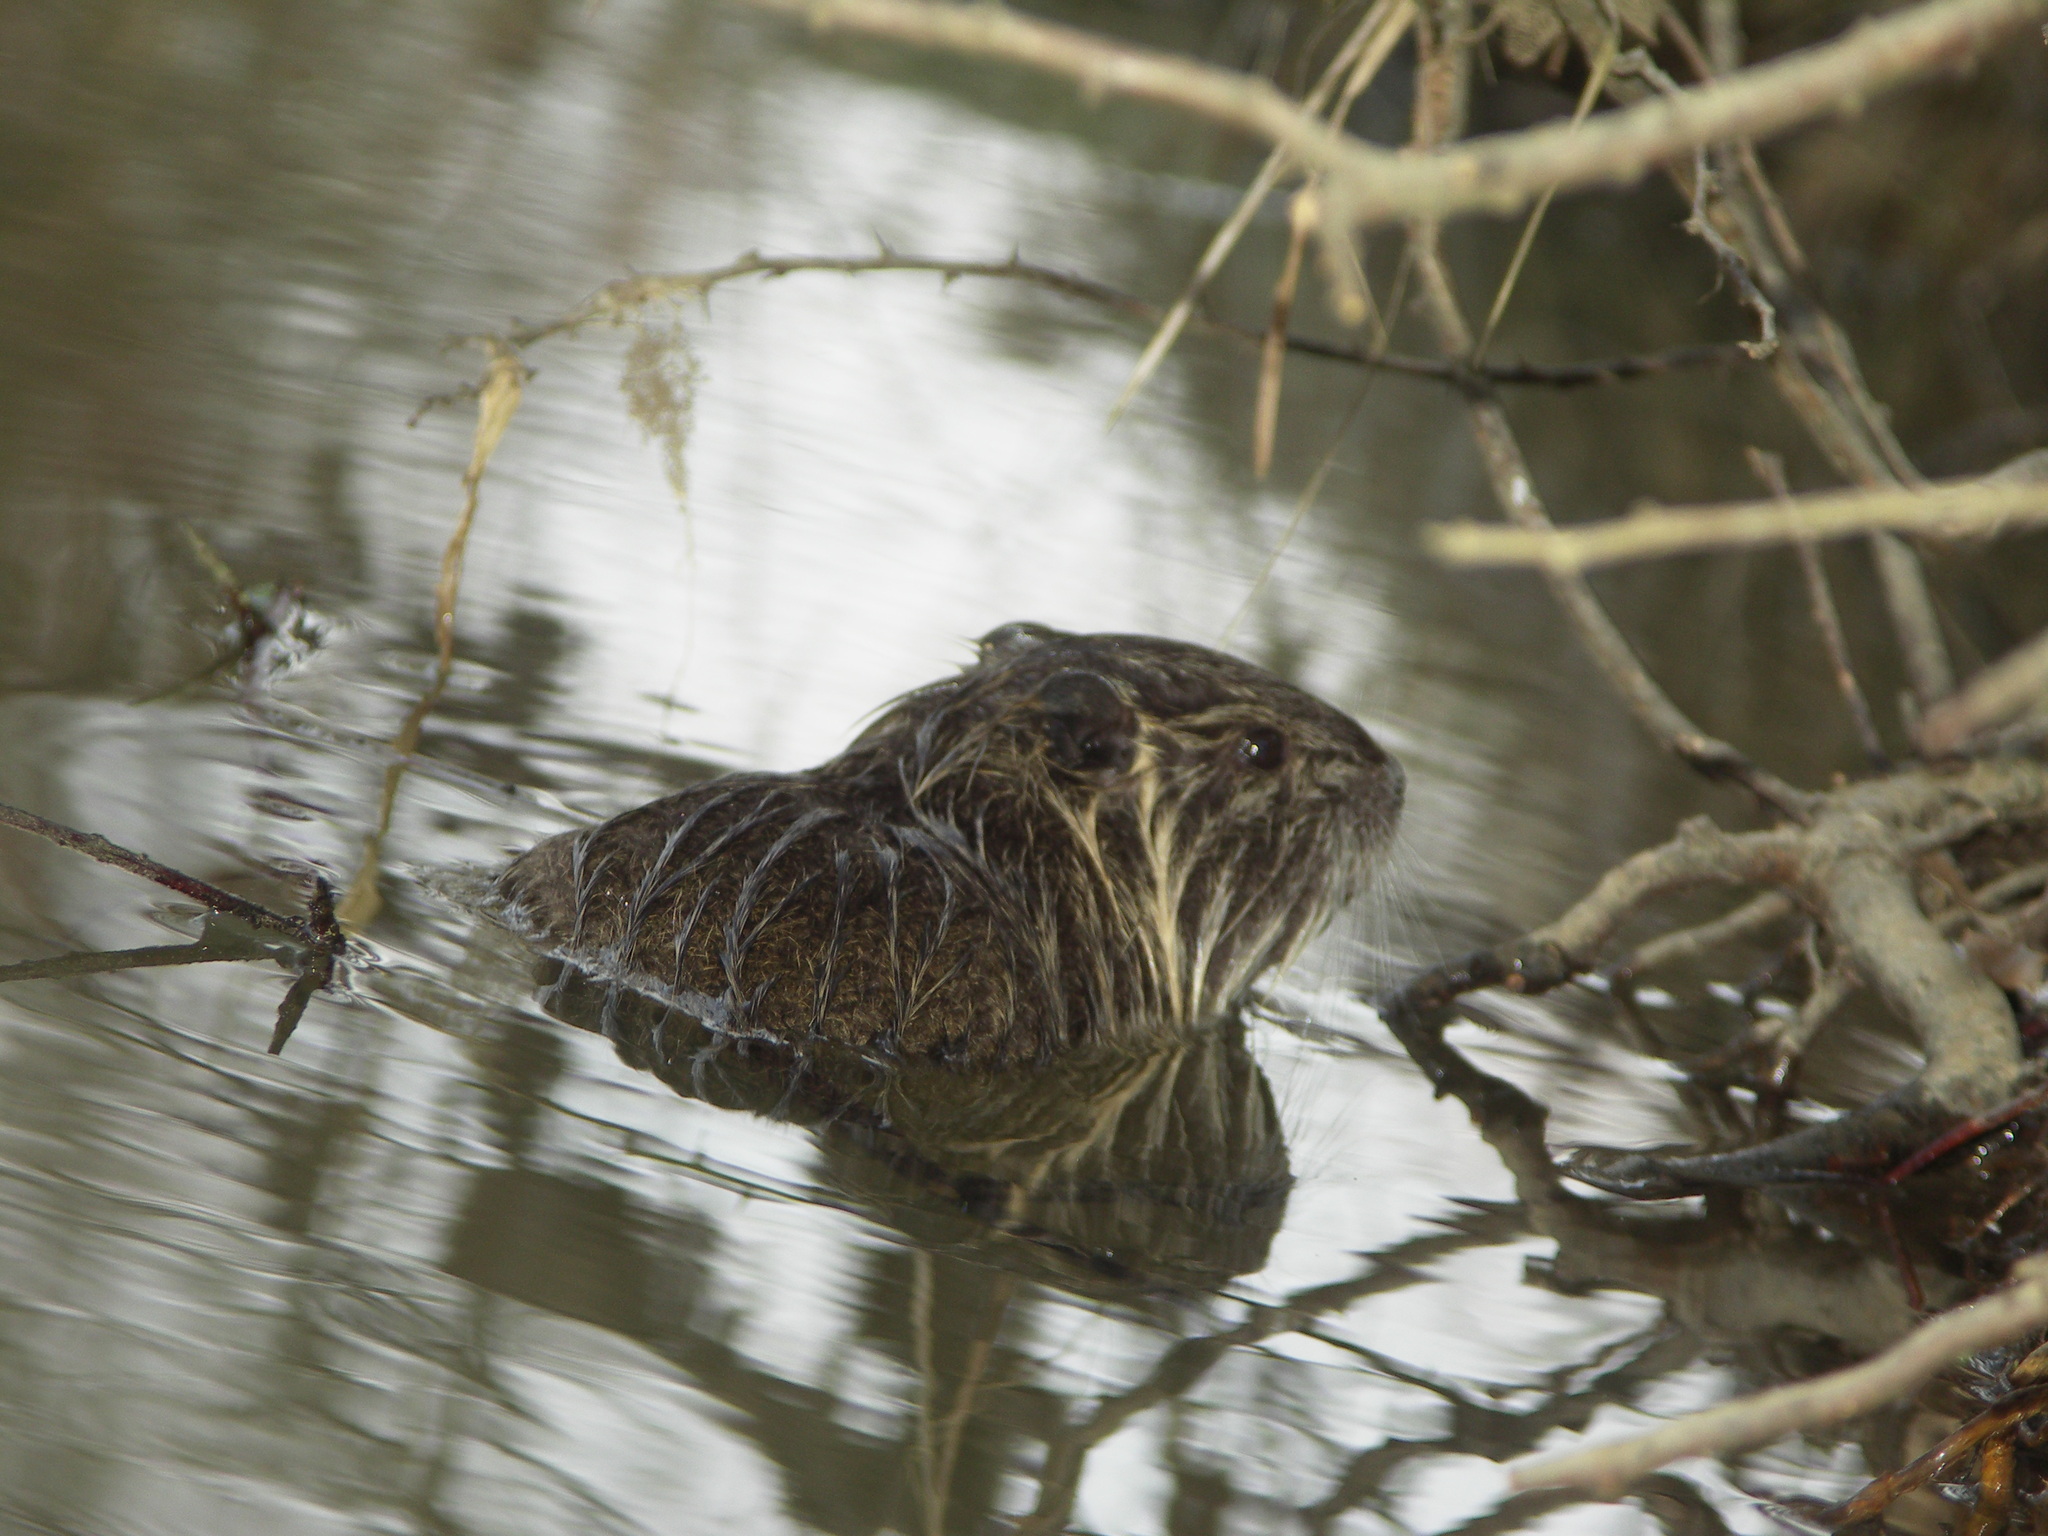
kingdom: Animalia
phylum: Chordata
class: Mammalia
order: Rodentia
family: Myocastoridae
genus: Myocastor
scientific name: Myocastor coypus
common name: Coypu
